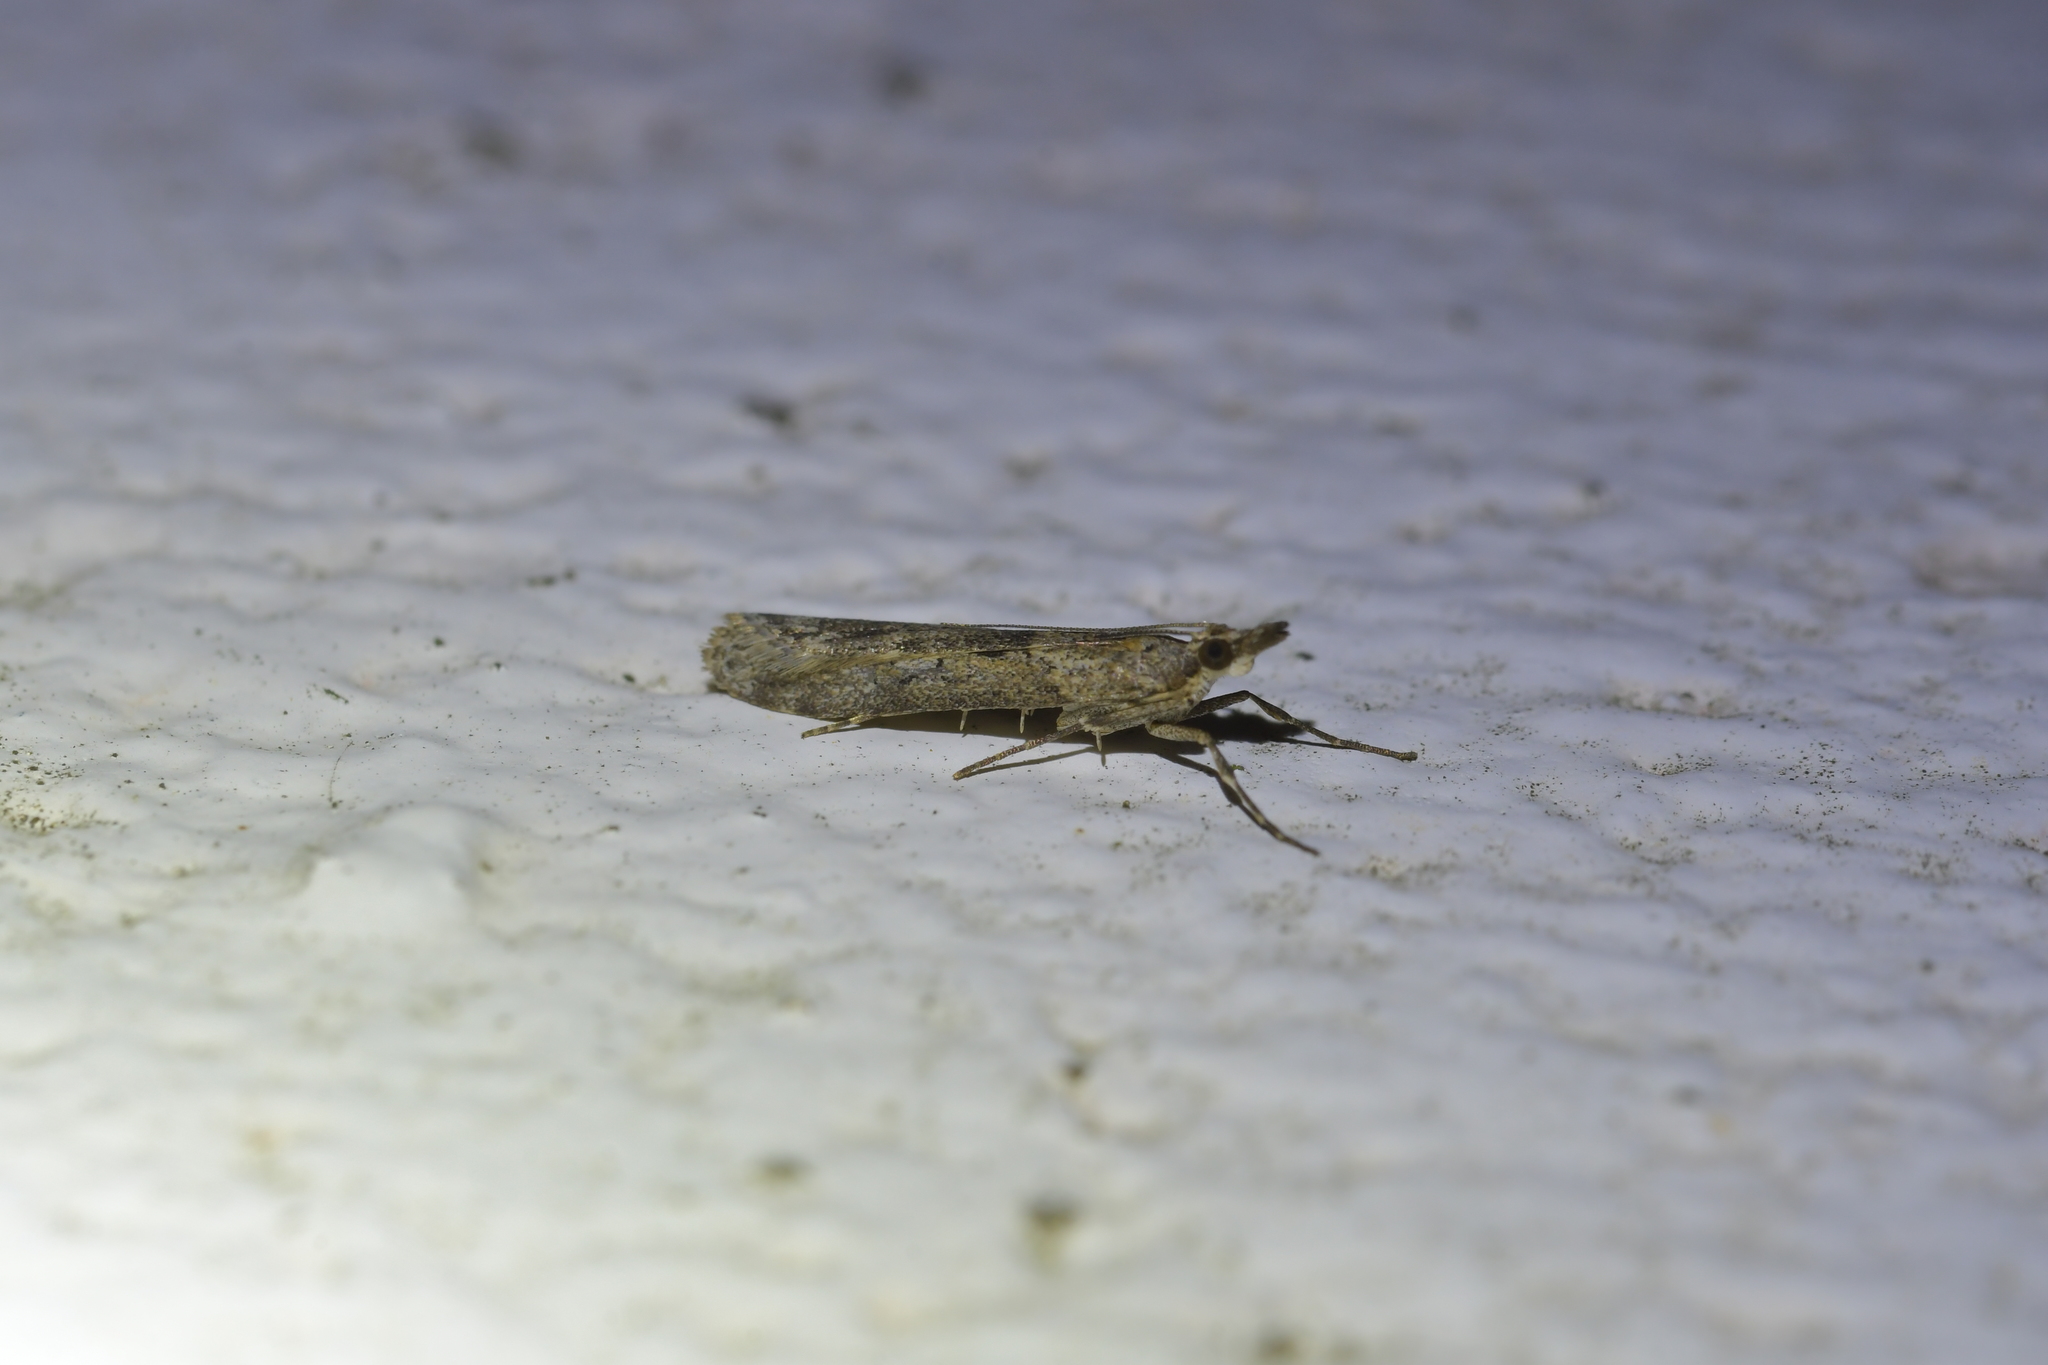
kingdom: Animalia
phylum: Arthropoda
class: Insecta
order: Lepidoptera
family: Crambidae
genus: Eudonia
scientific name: Eudonia leptalea
